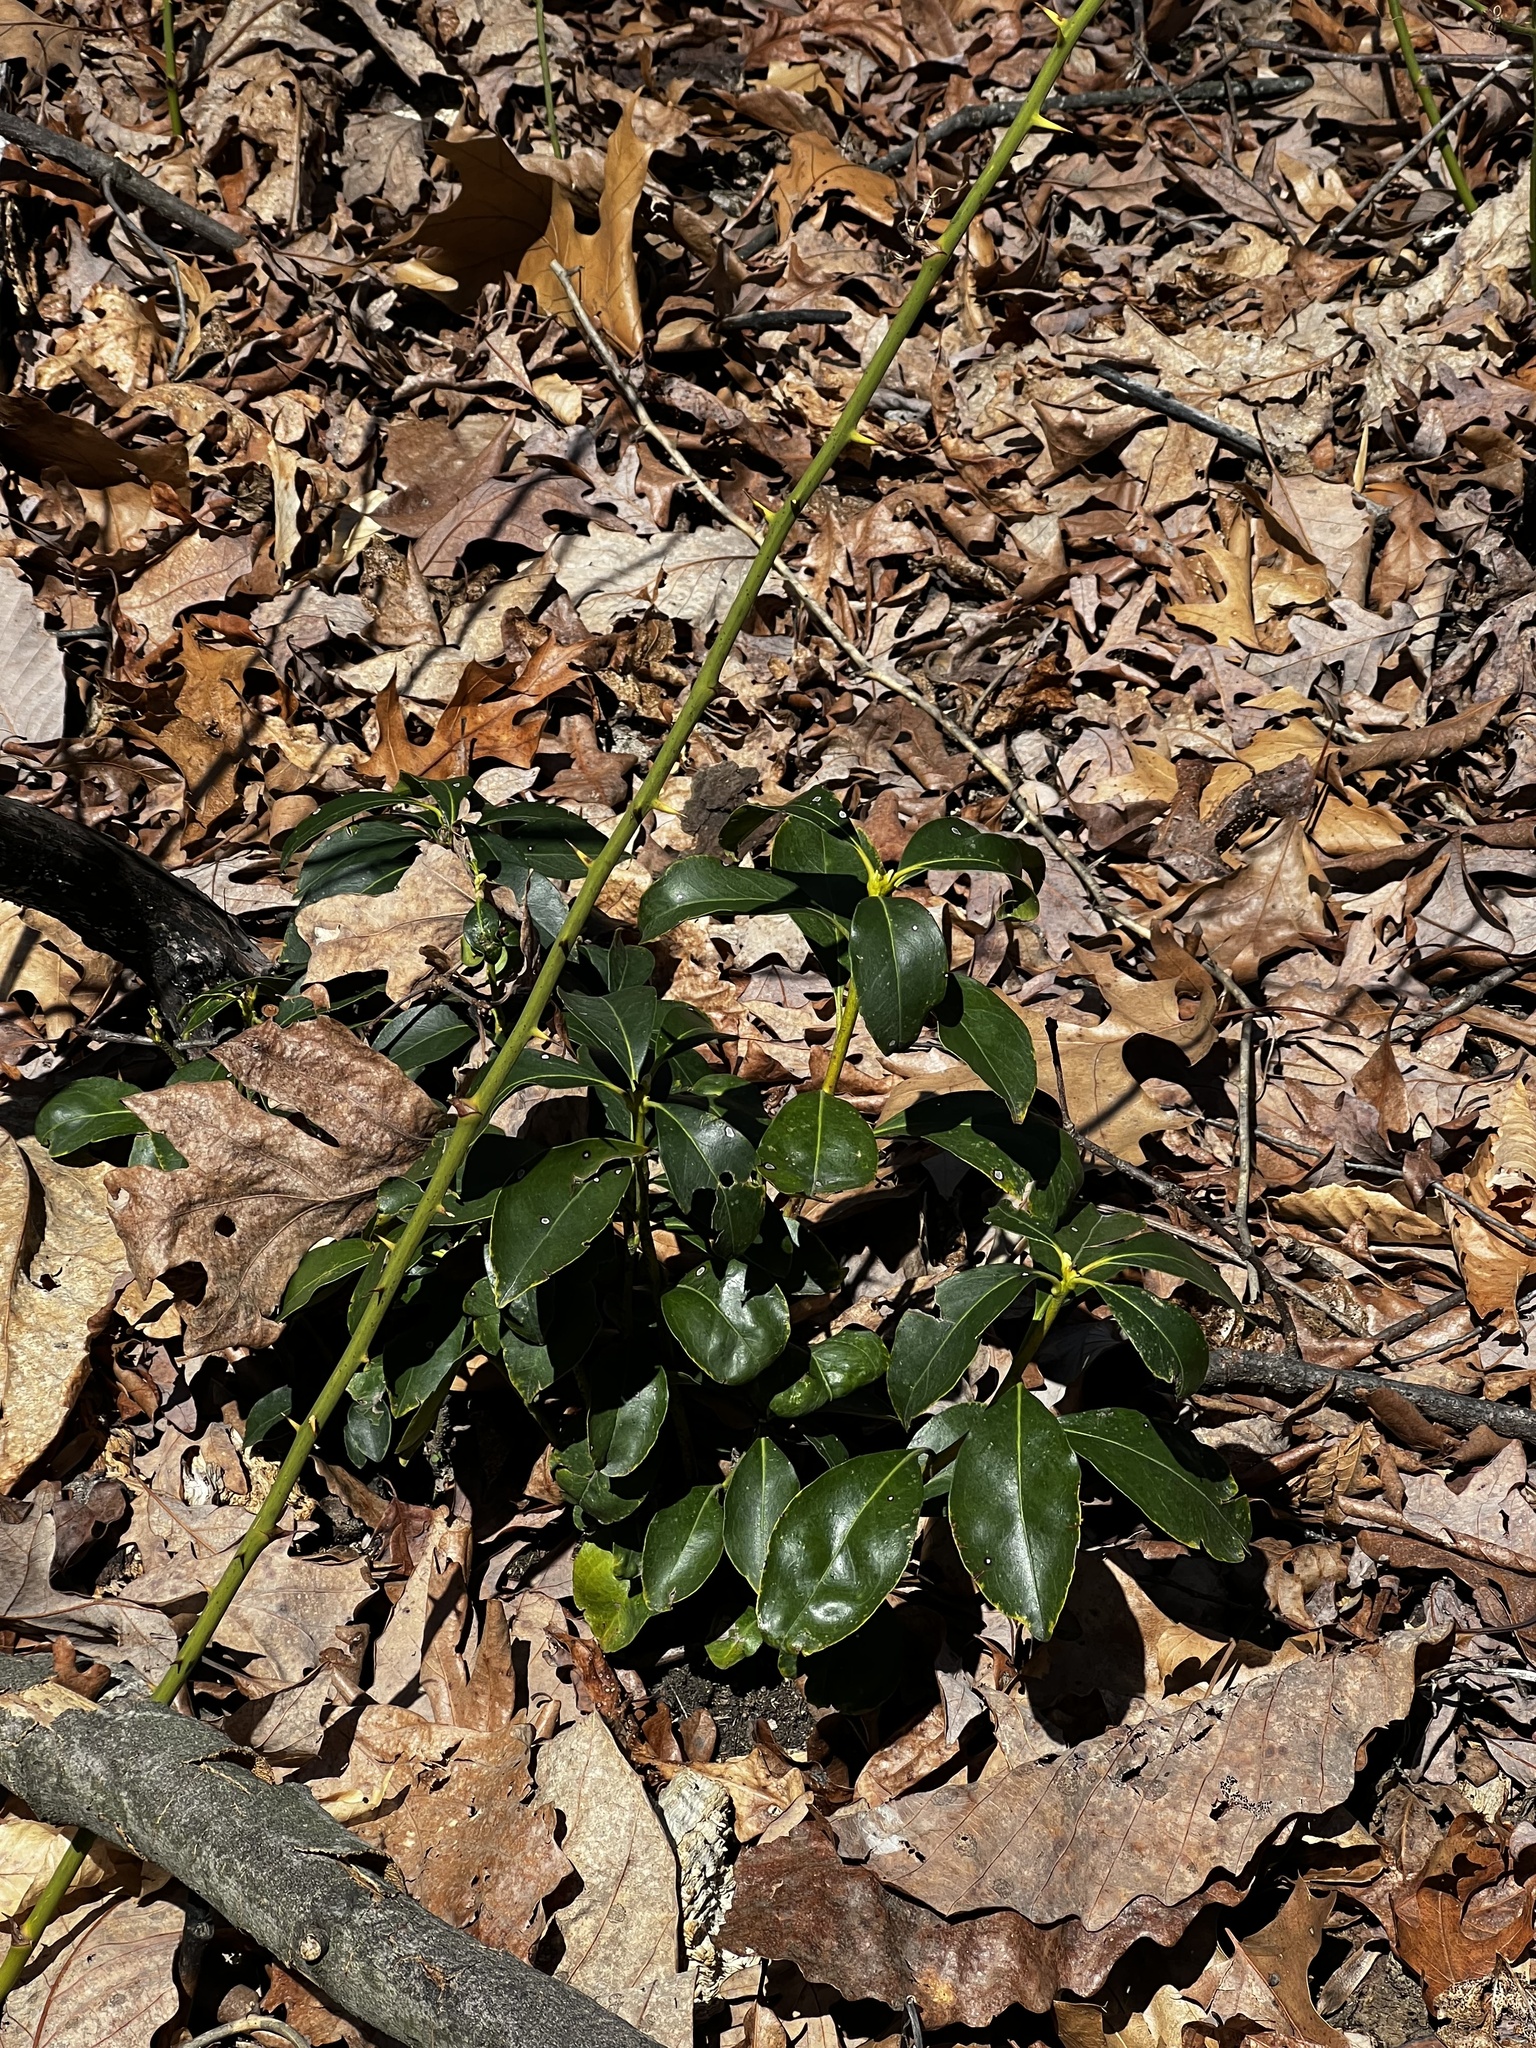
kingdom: Plantae
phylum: Tracheophyta
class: Magnoliopsida
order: Ericales
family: Ericaceae
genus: Kalmia
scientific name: Kalmia latifolia
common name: Mountain-laurel
